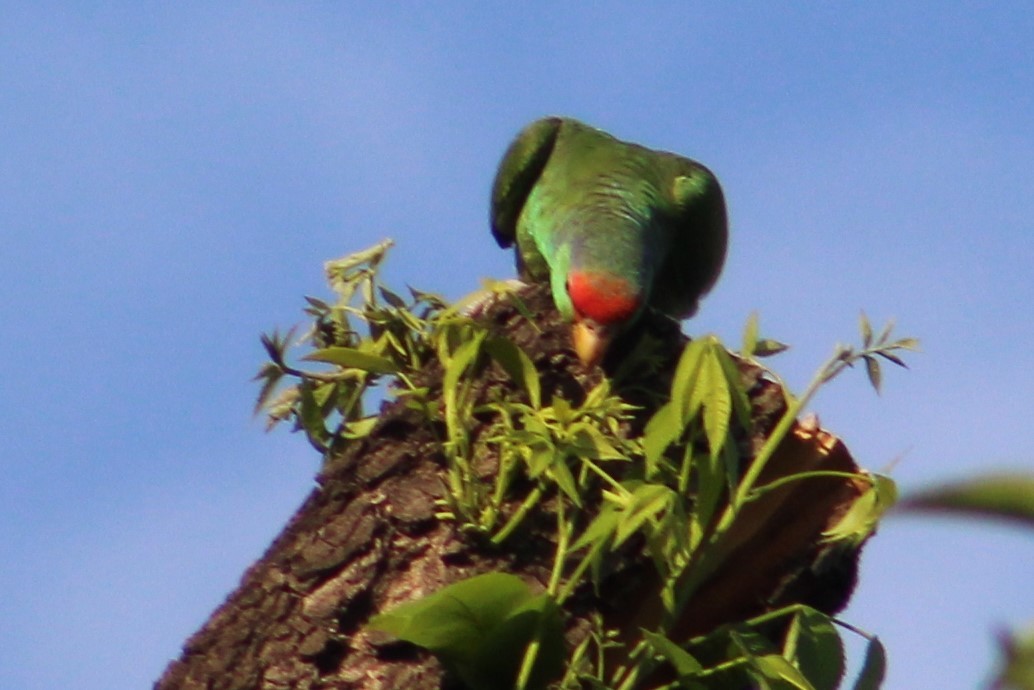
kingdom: Animalia
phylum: Chordata
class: Aves
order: Psittaciformes
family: Psittacidae
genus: Amazona
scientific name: Amazona viridigenalis
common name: Red-crowned amazon
